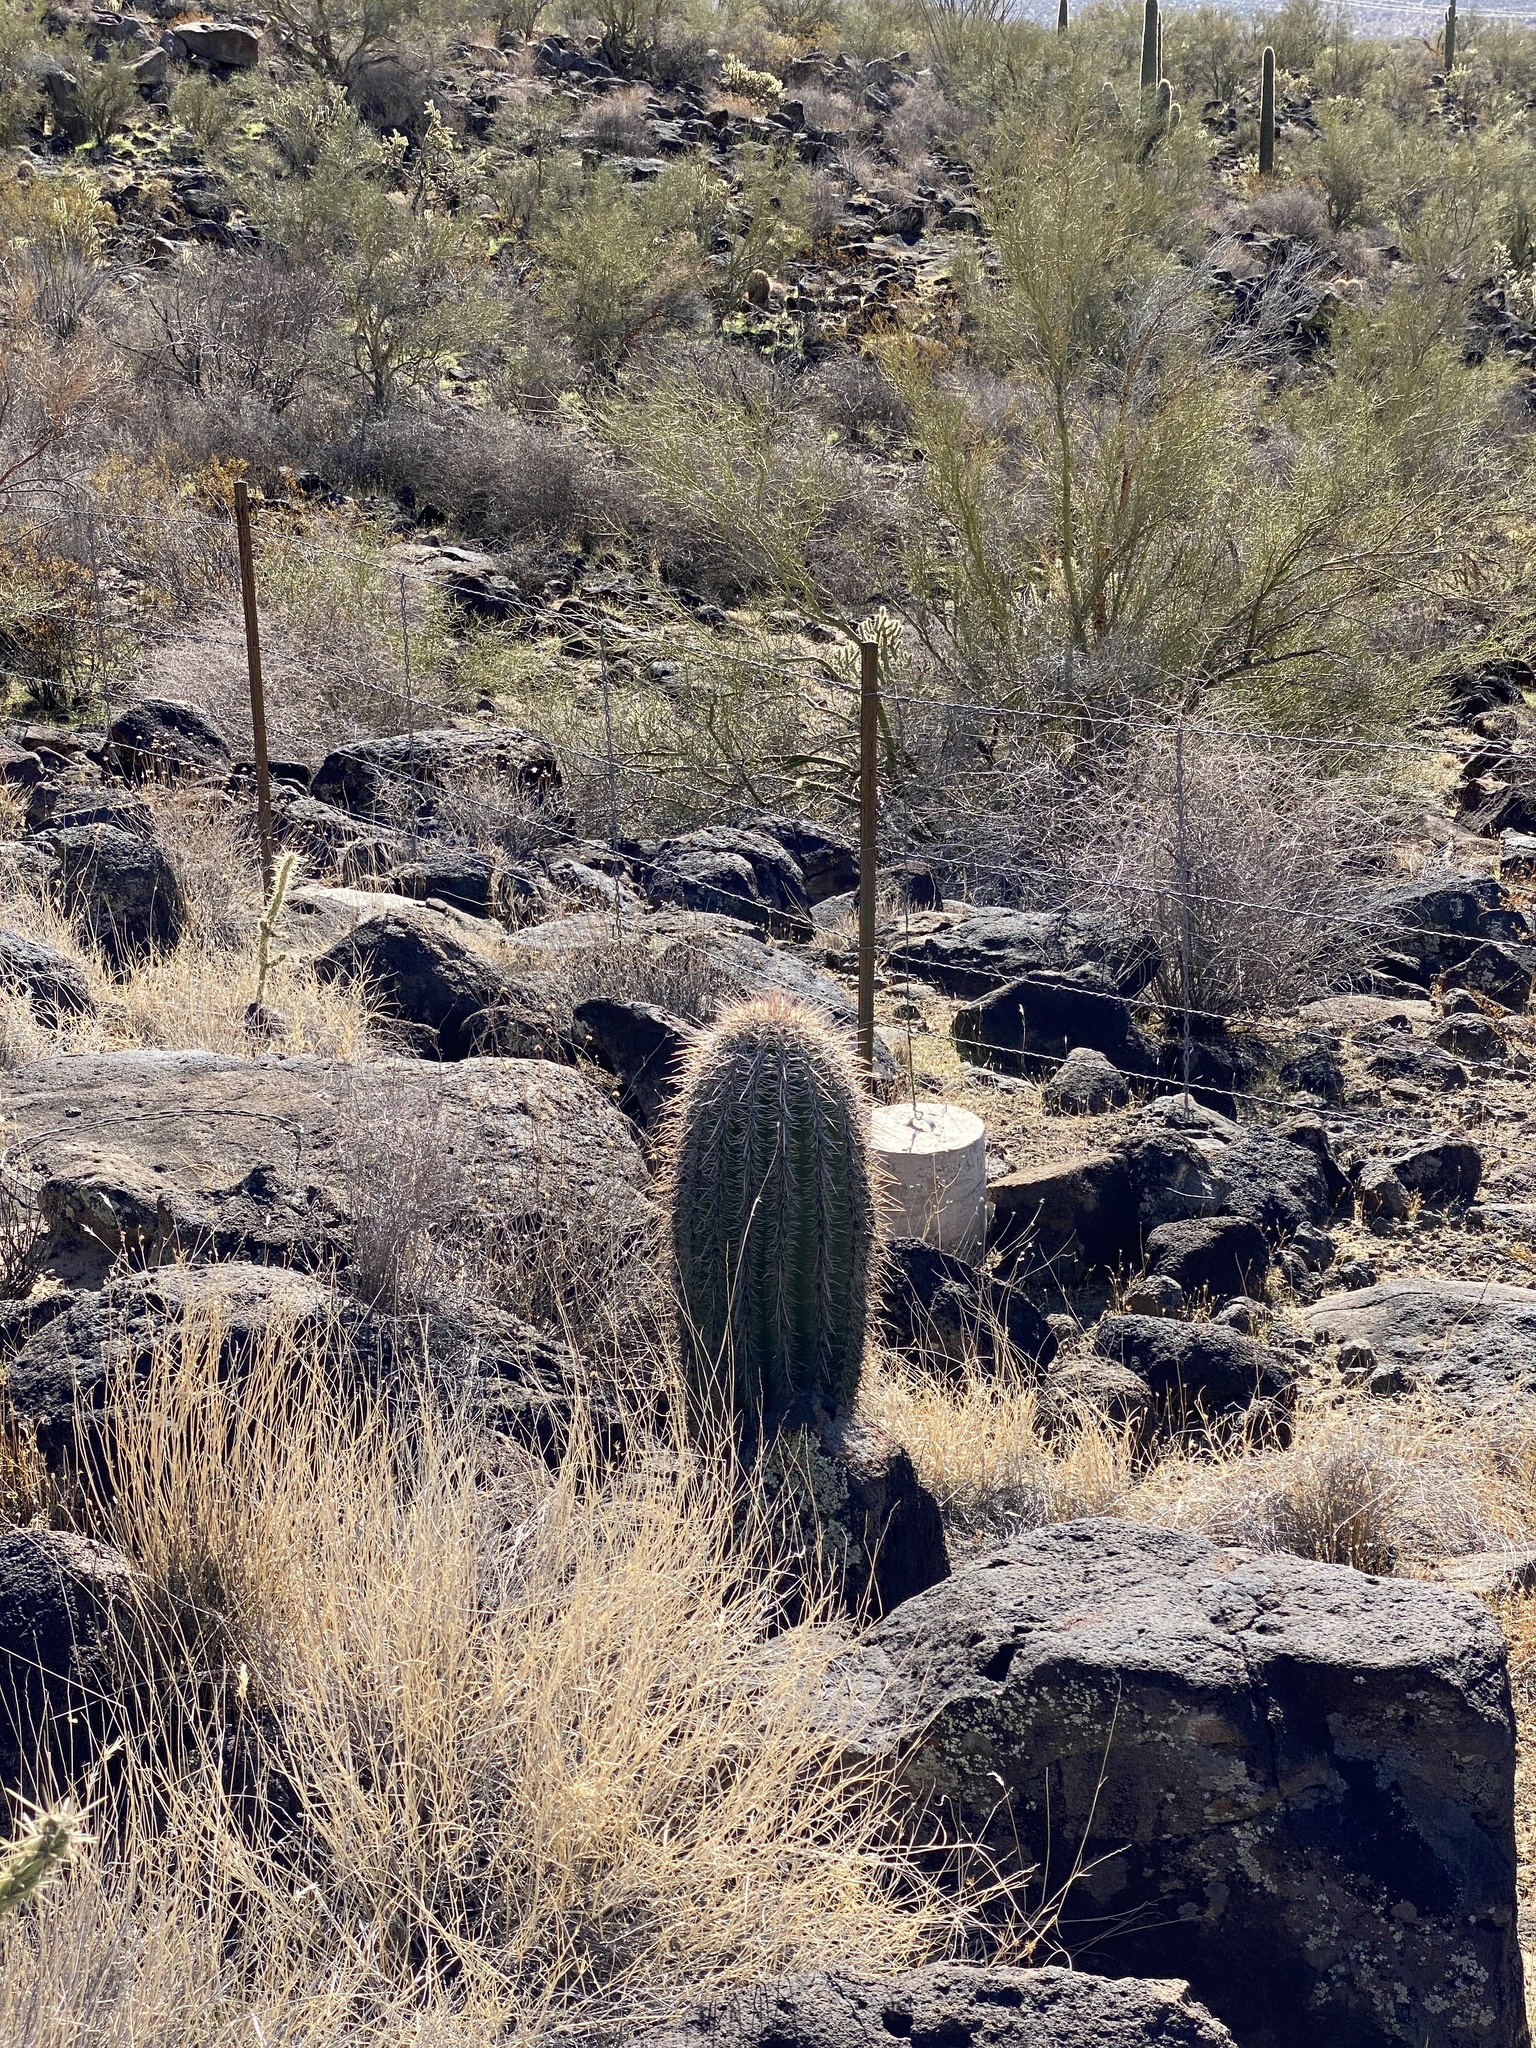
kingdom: Plantae
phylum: Tracheophyta
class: Magnoliopsida
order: Caryophyllales
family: Cactaceae
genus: Carnegiea
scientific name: Carnegiea gigantea
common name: Saguaro
